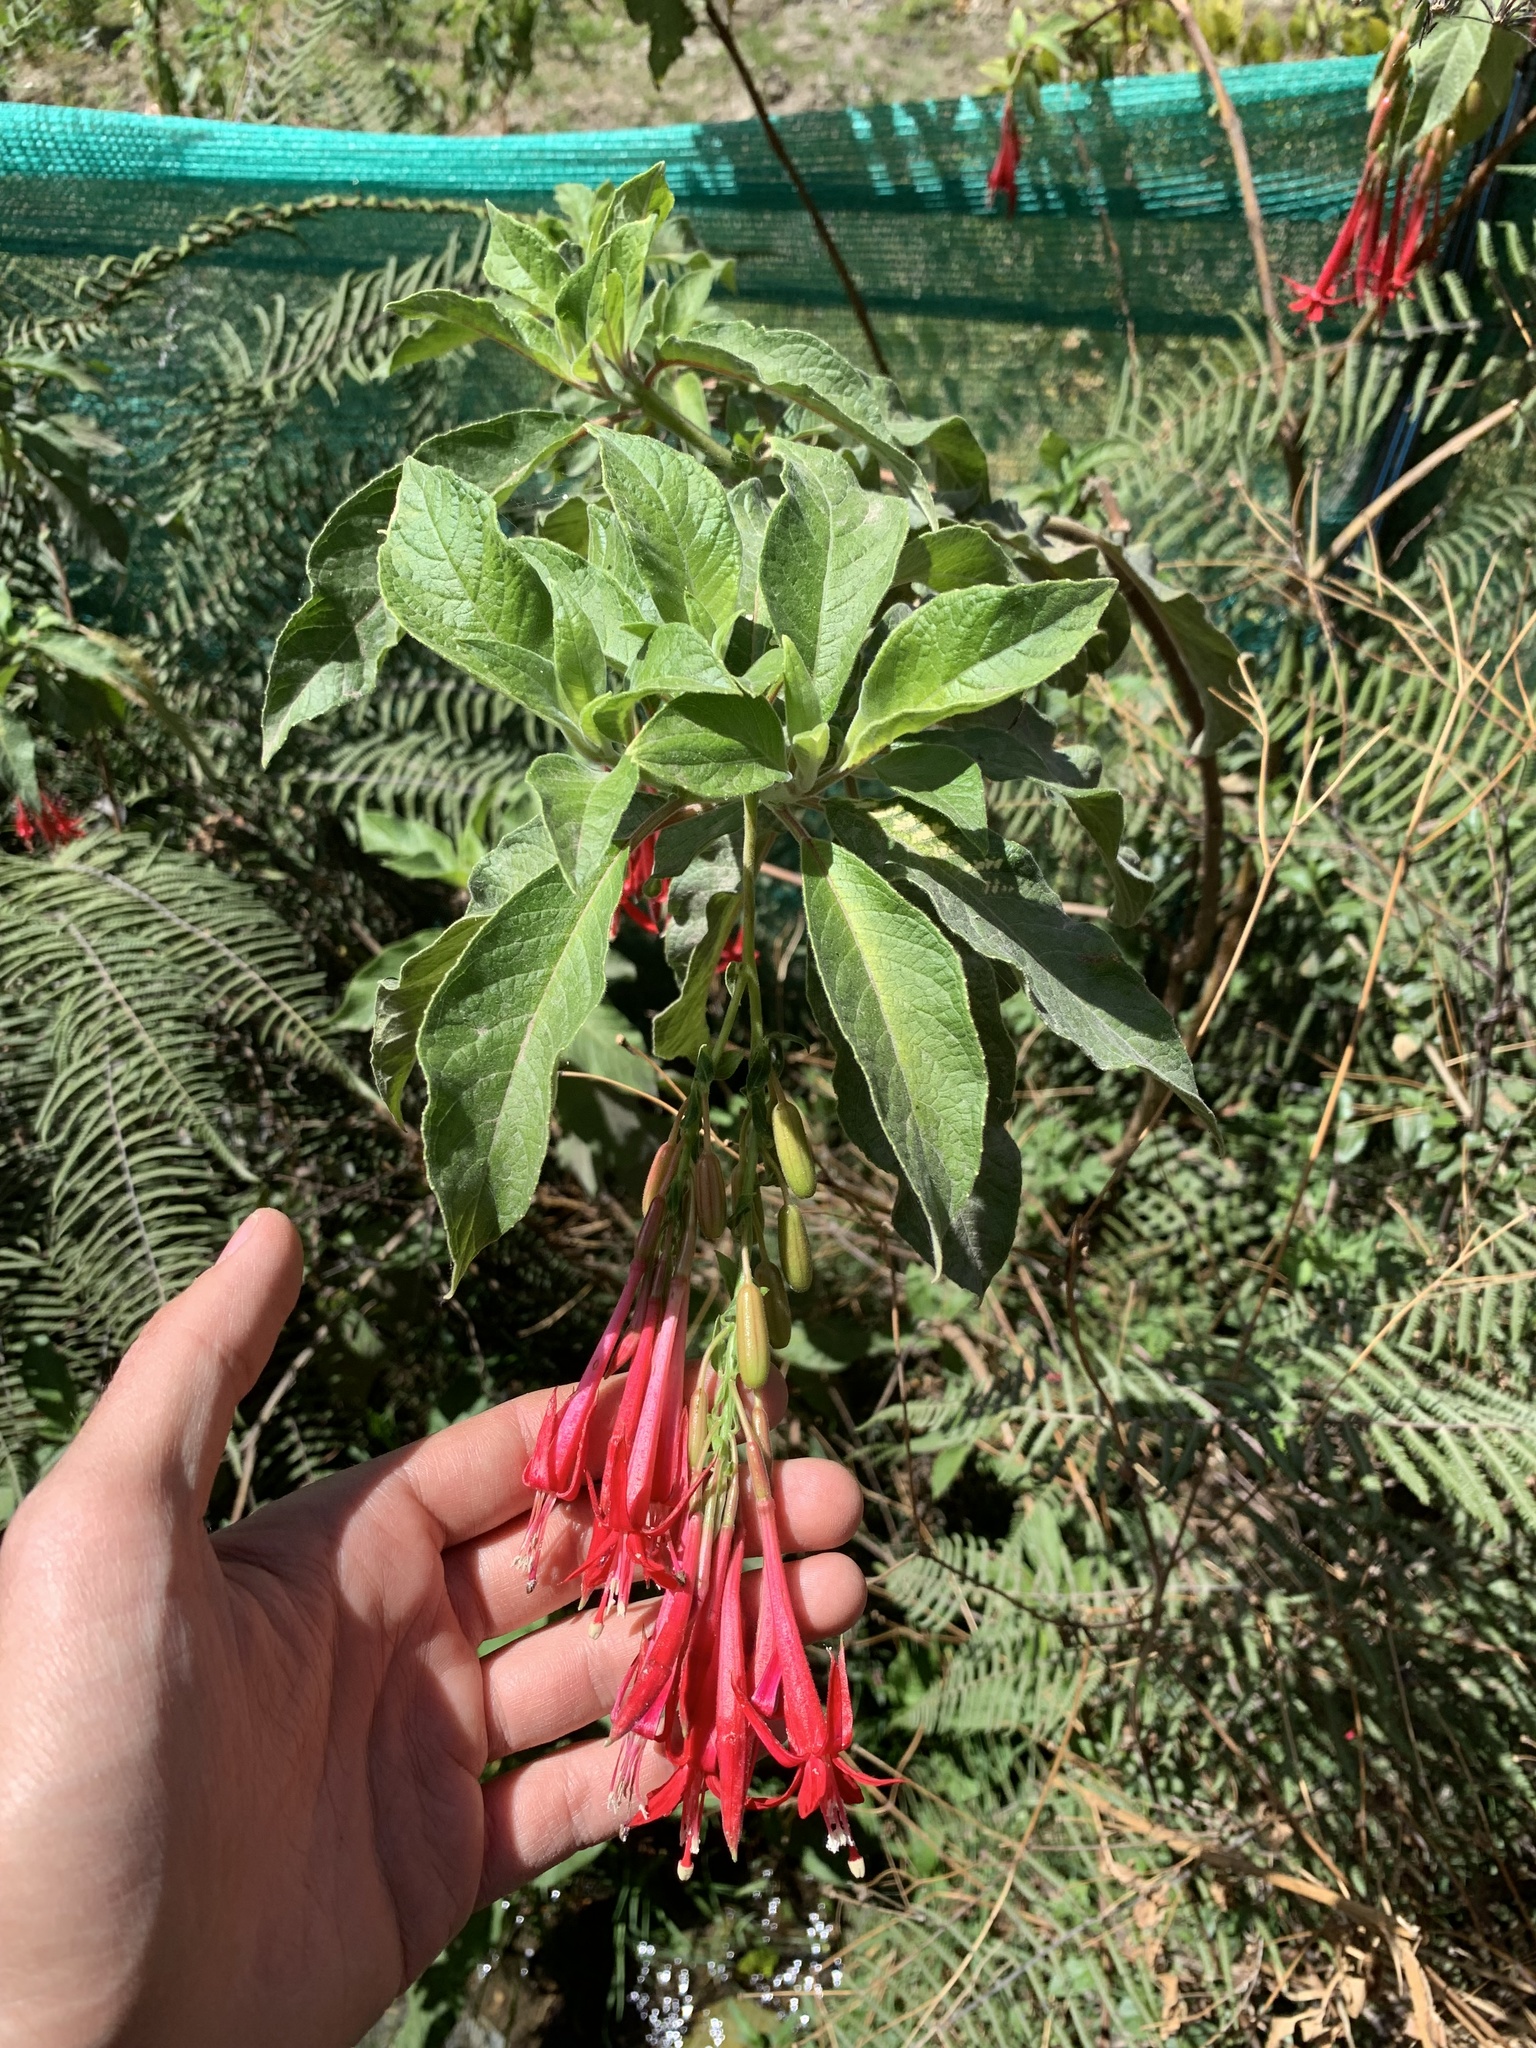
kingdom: Plantae
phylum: Tracheophyta
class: Magnoliopsida
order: Myrtales
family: Onagraceae
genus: Fuchsia
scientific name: Fuchsia boliviana
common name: Bolivian fuchsia
